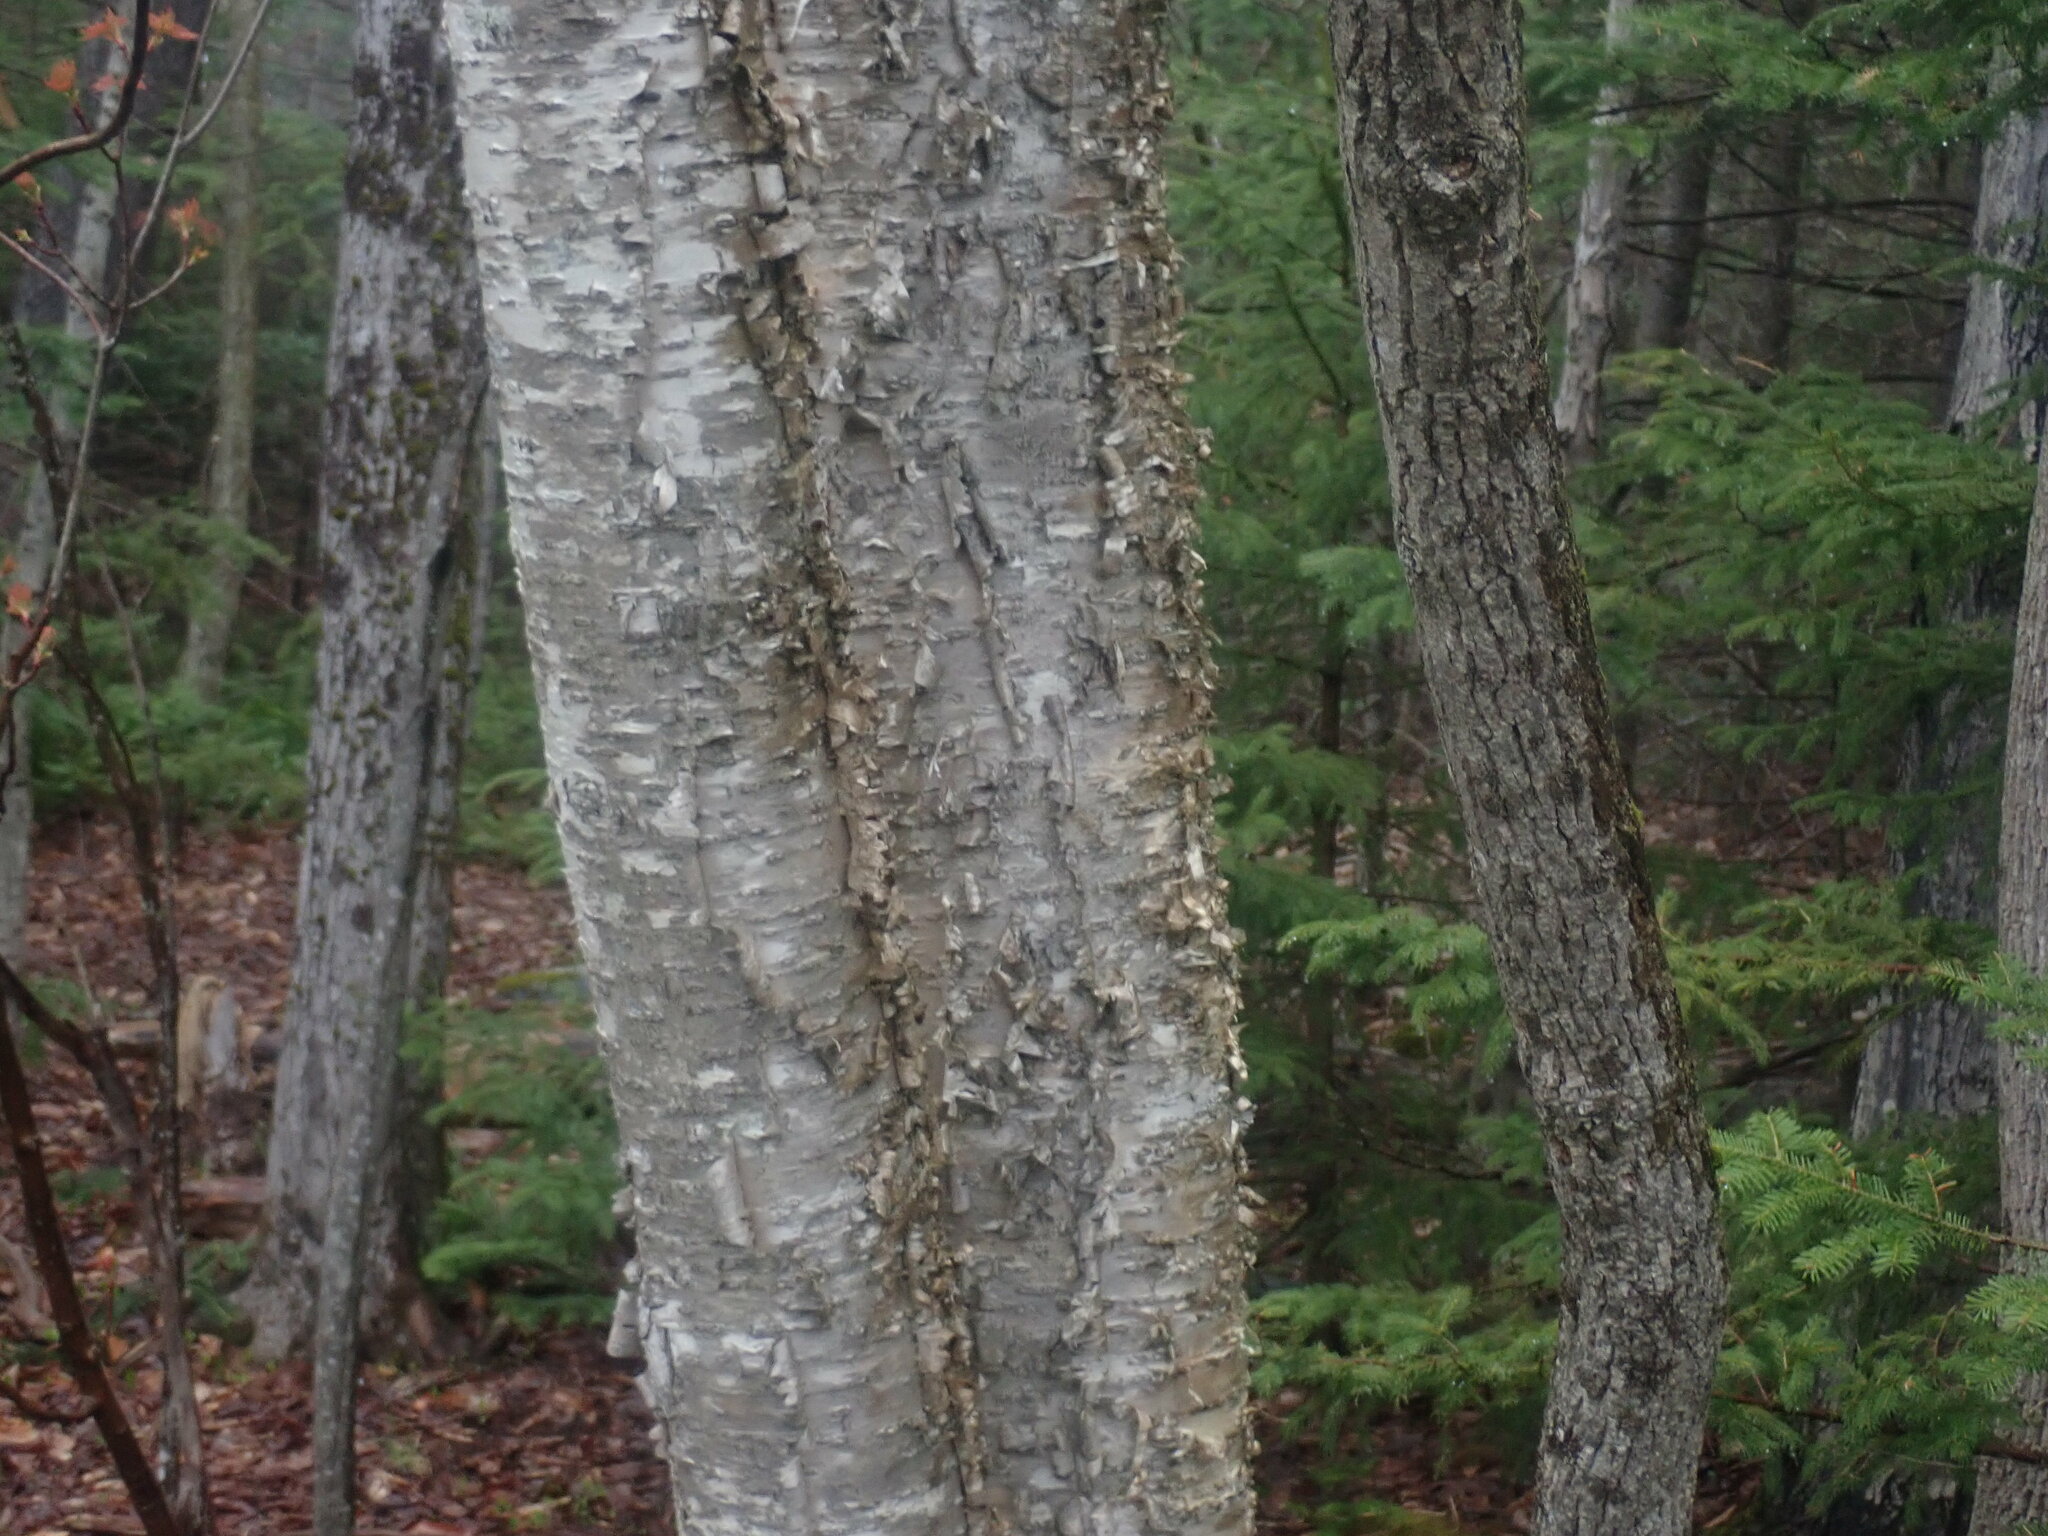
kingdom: Plantae
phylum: Tracheophyta
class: Magnoliopsida
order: Fagales
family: Betulaceae
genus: Betula
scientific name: Betula alleghaniensis
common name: Yellow birch
